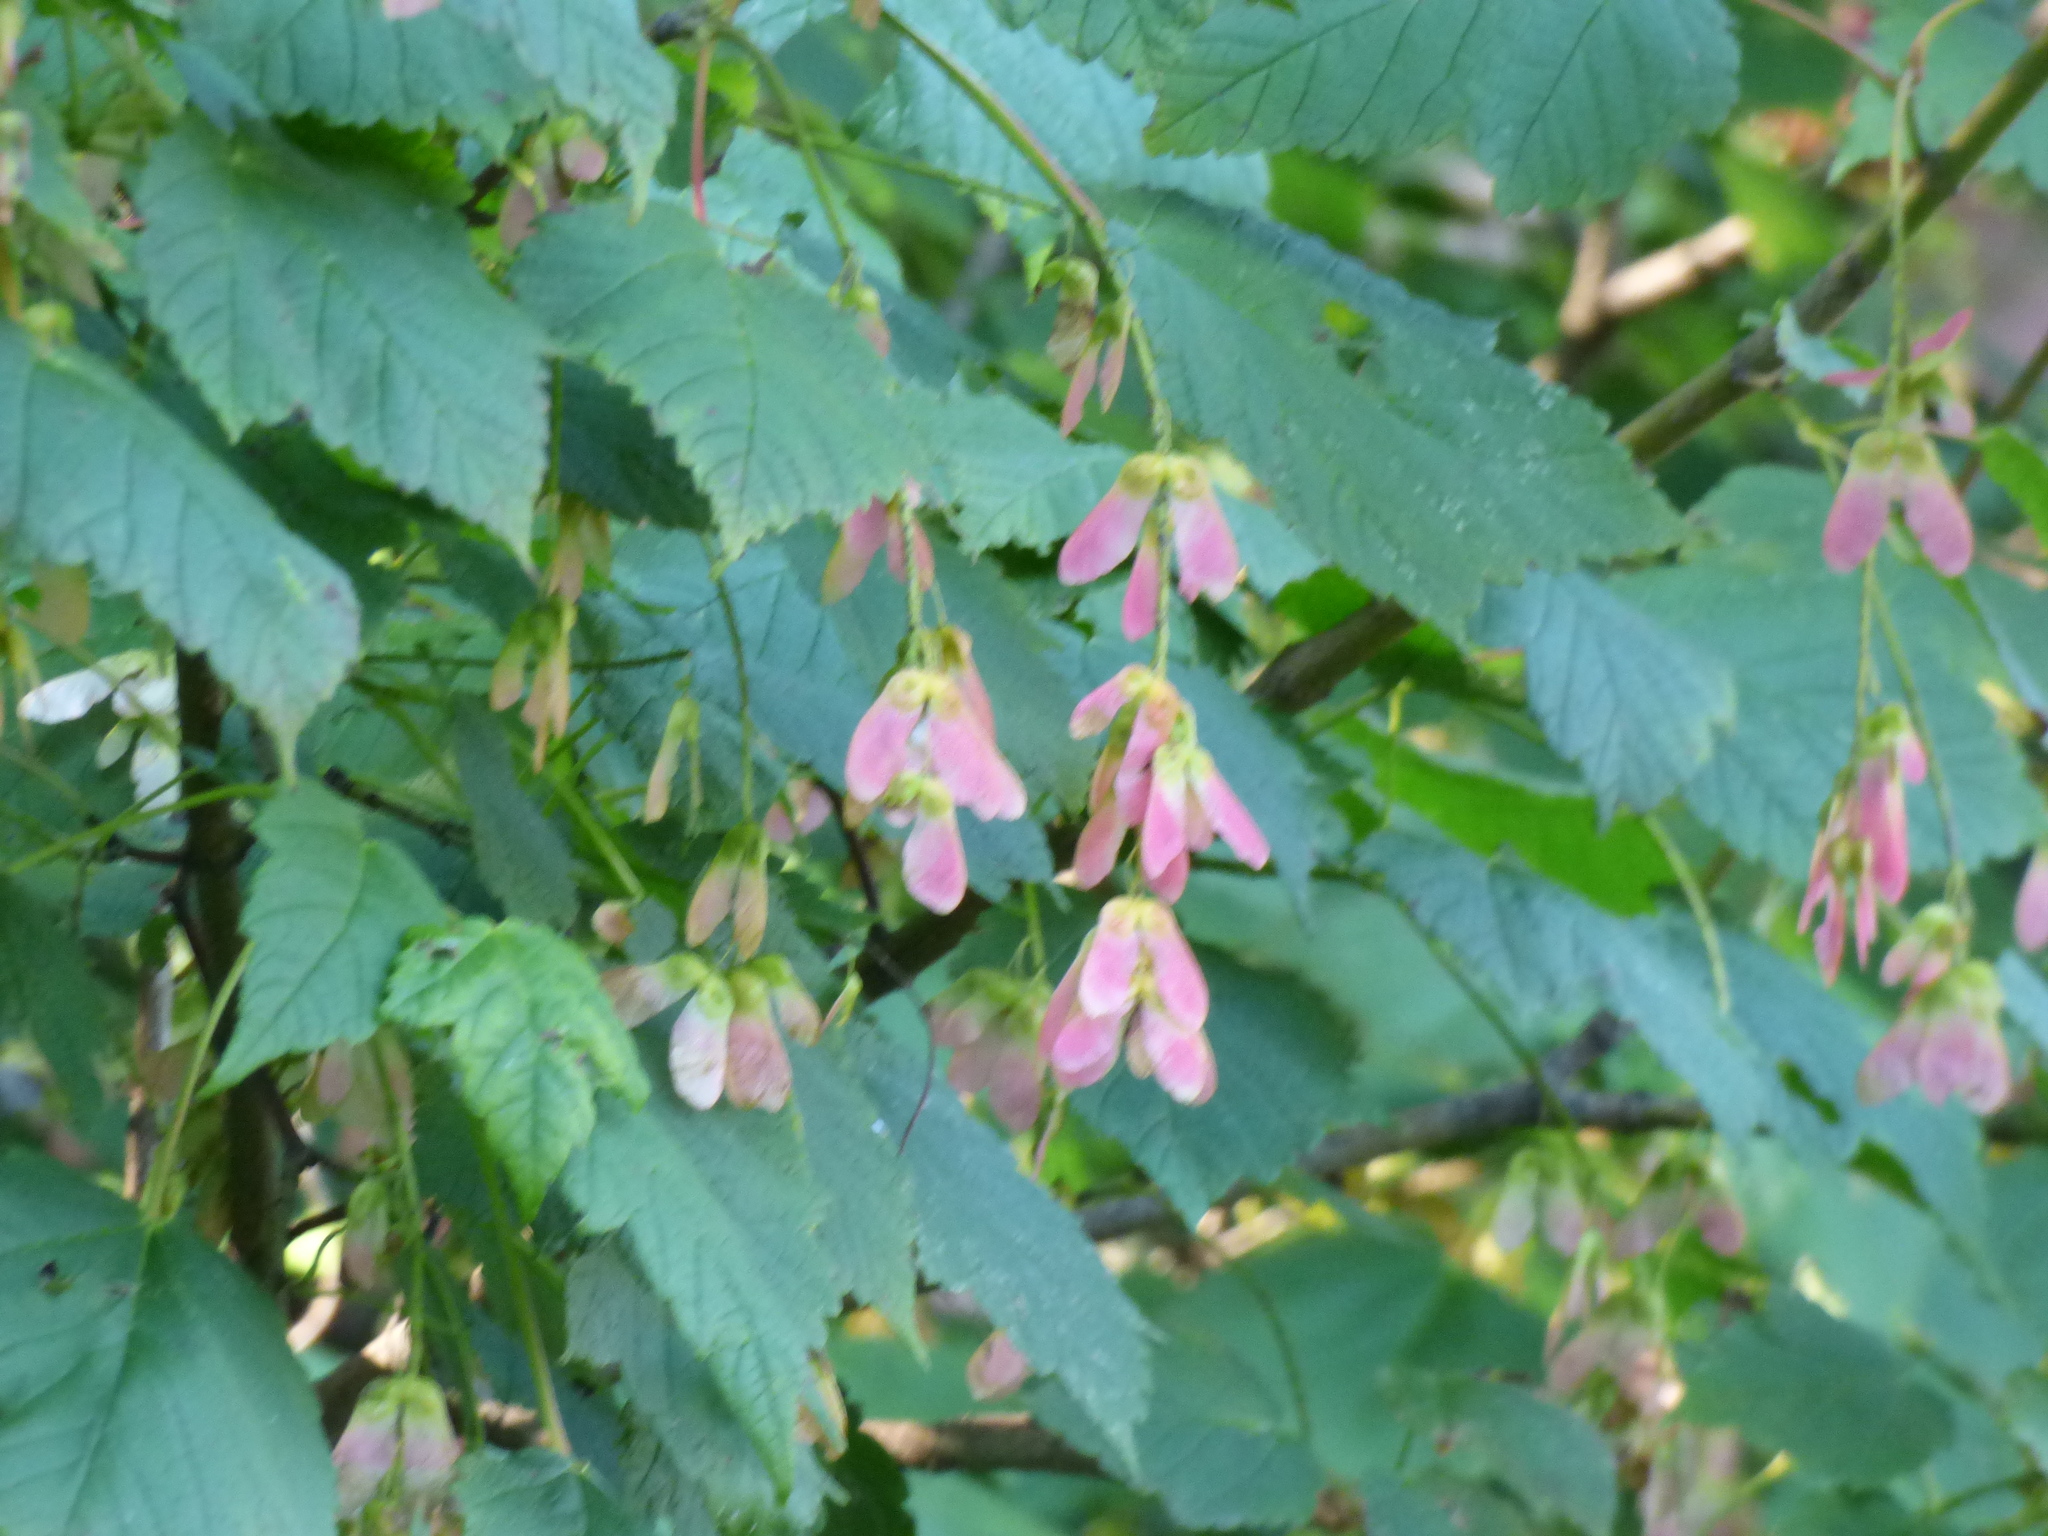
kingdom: Plantae
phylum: Tracheophyta
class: Magnoliopsida
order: Sapindales
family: Sapindaceae
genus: Acer
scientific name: Acer spicatum
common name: Mountain maple
